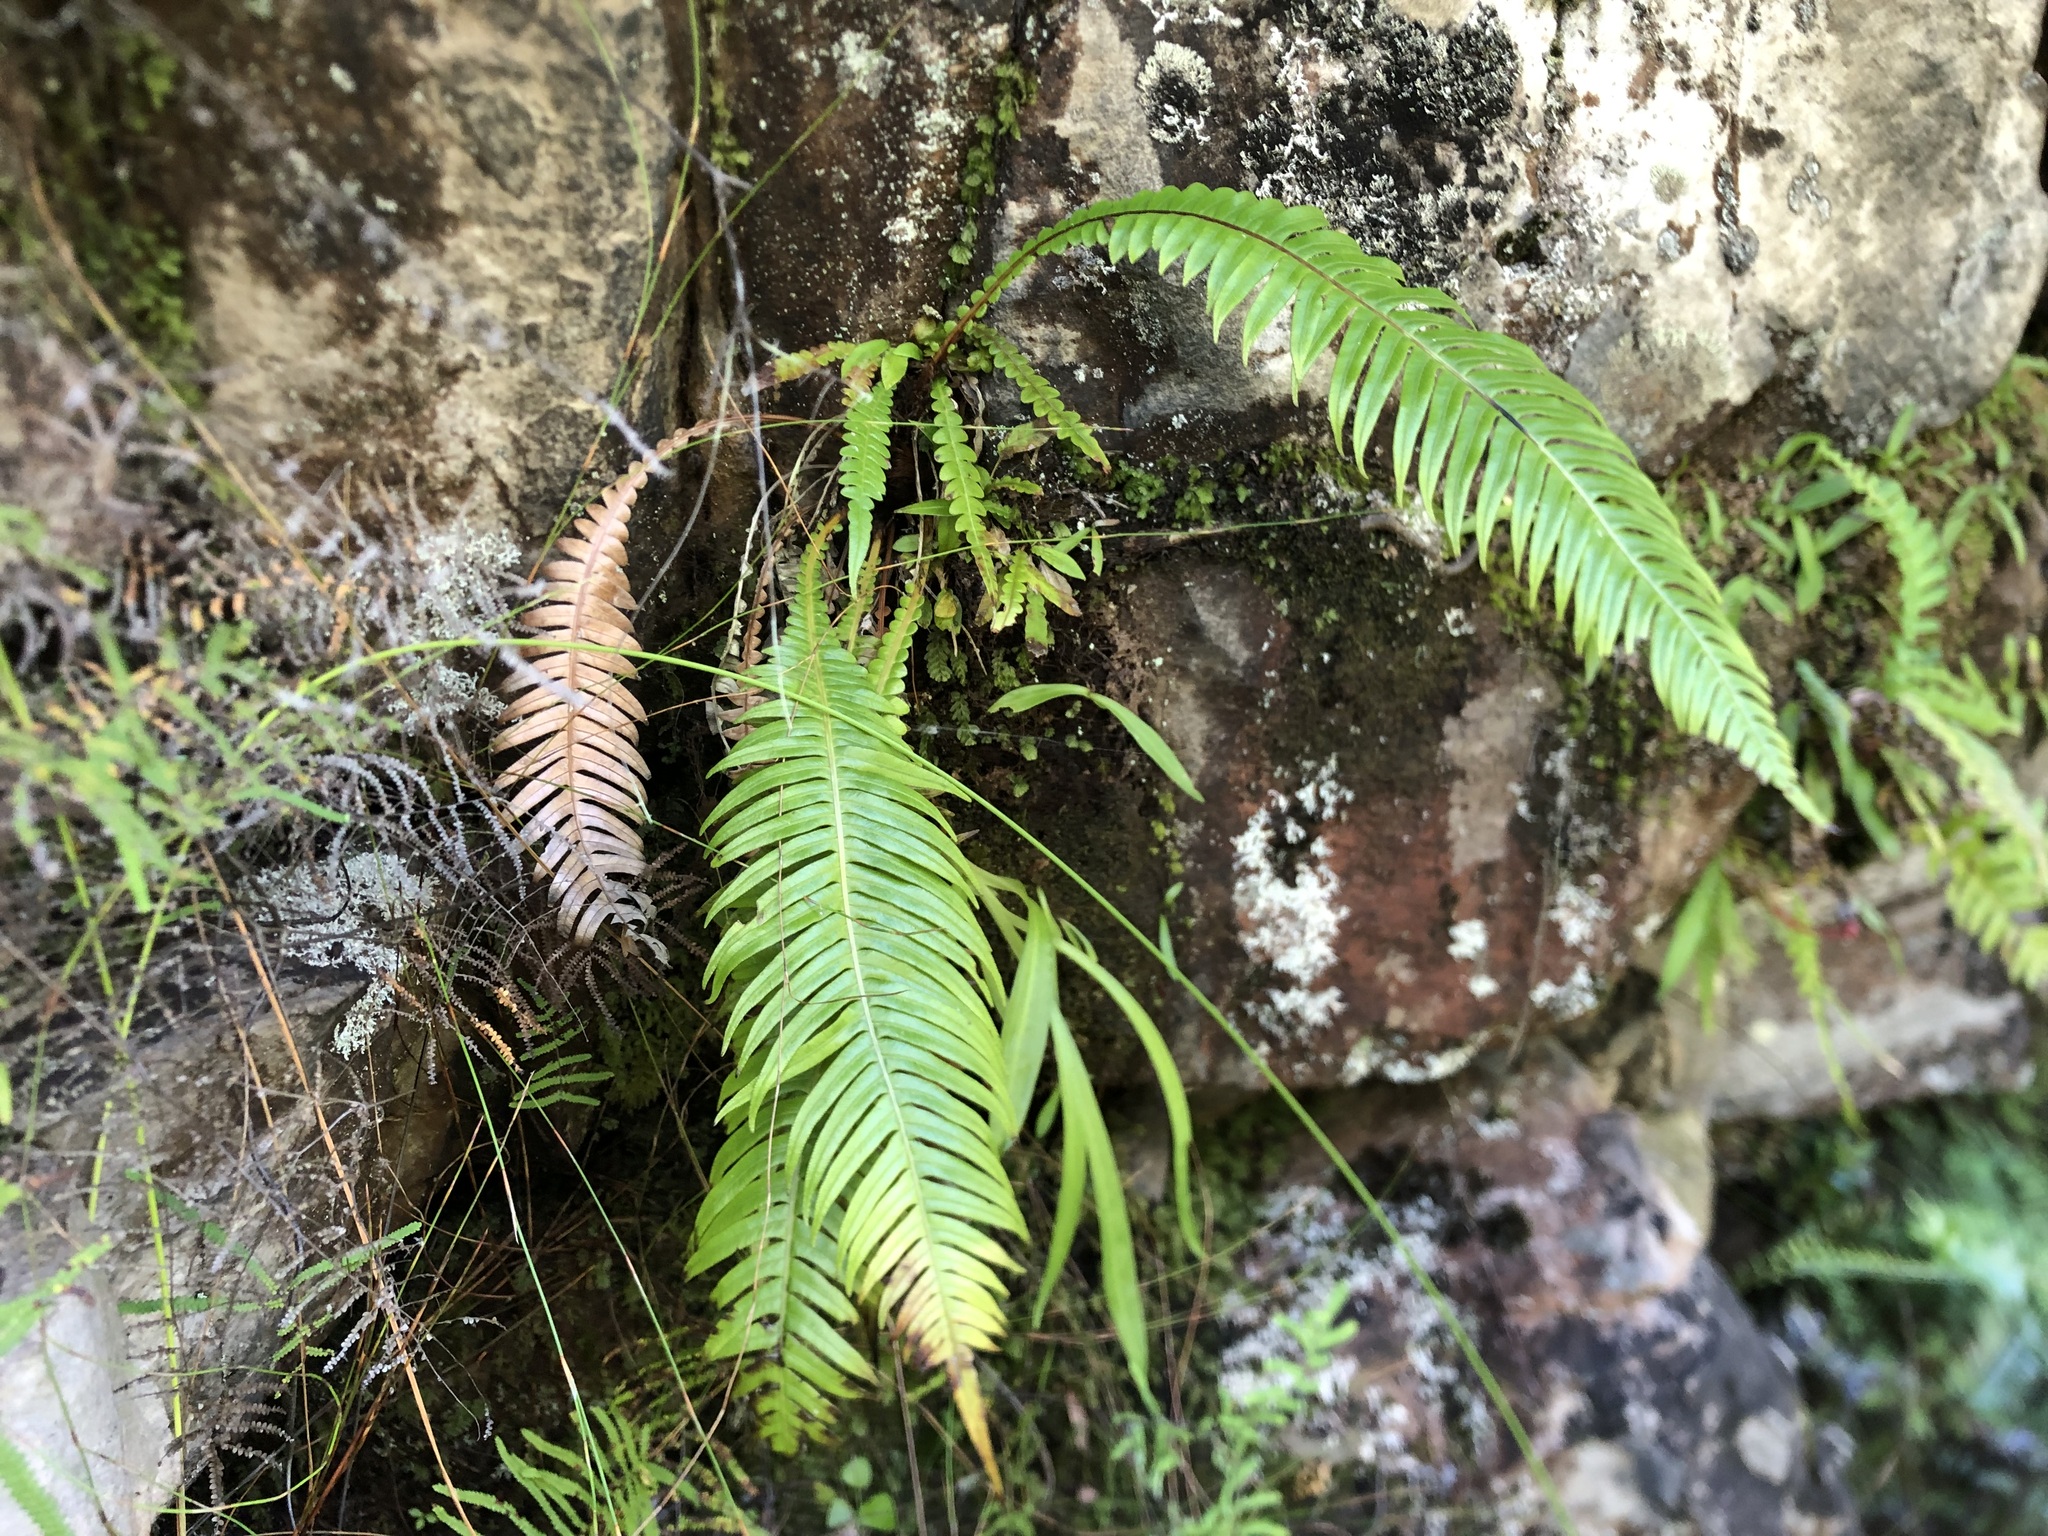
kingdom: Plantae
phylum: Tracheophyta
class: Polypodiopsida
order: Polypodiales
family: Blechnaceae
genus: Lomaridium
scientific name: Lomaridium attenuatum
